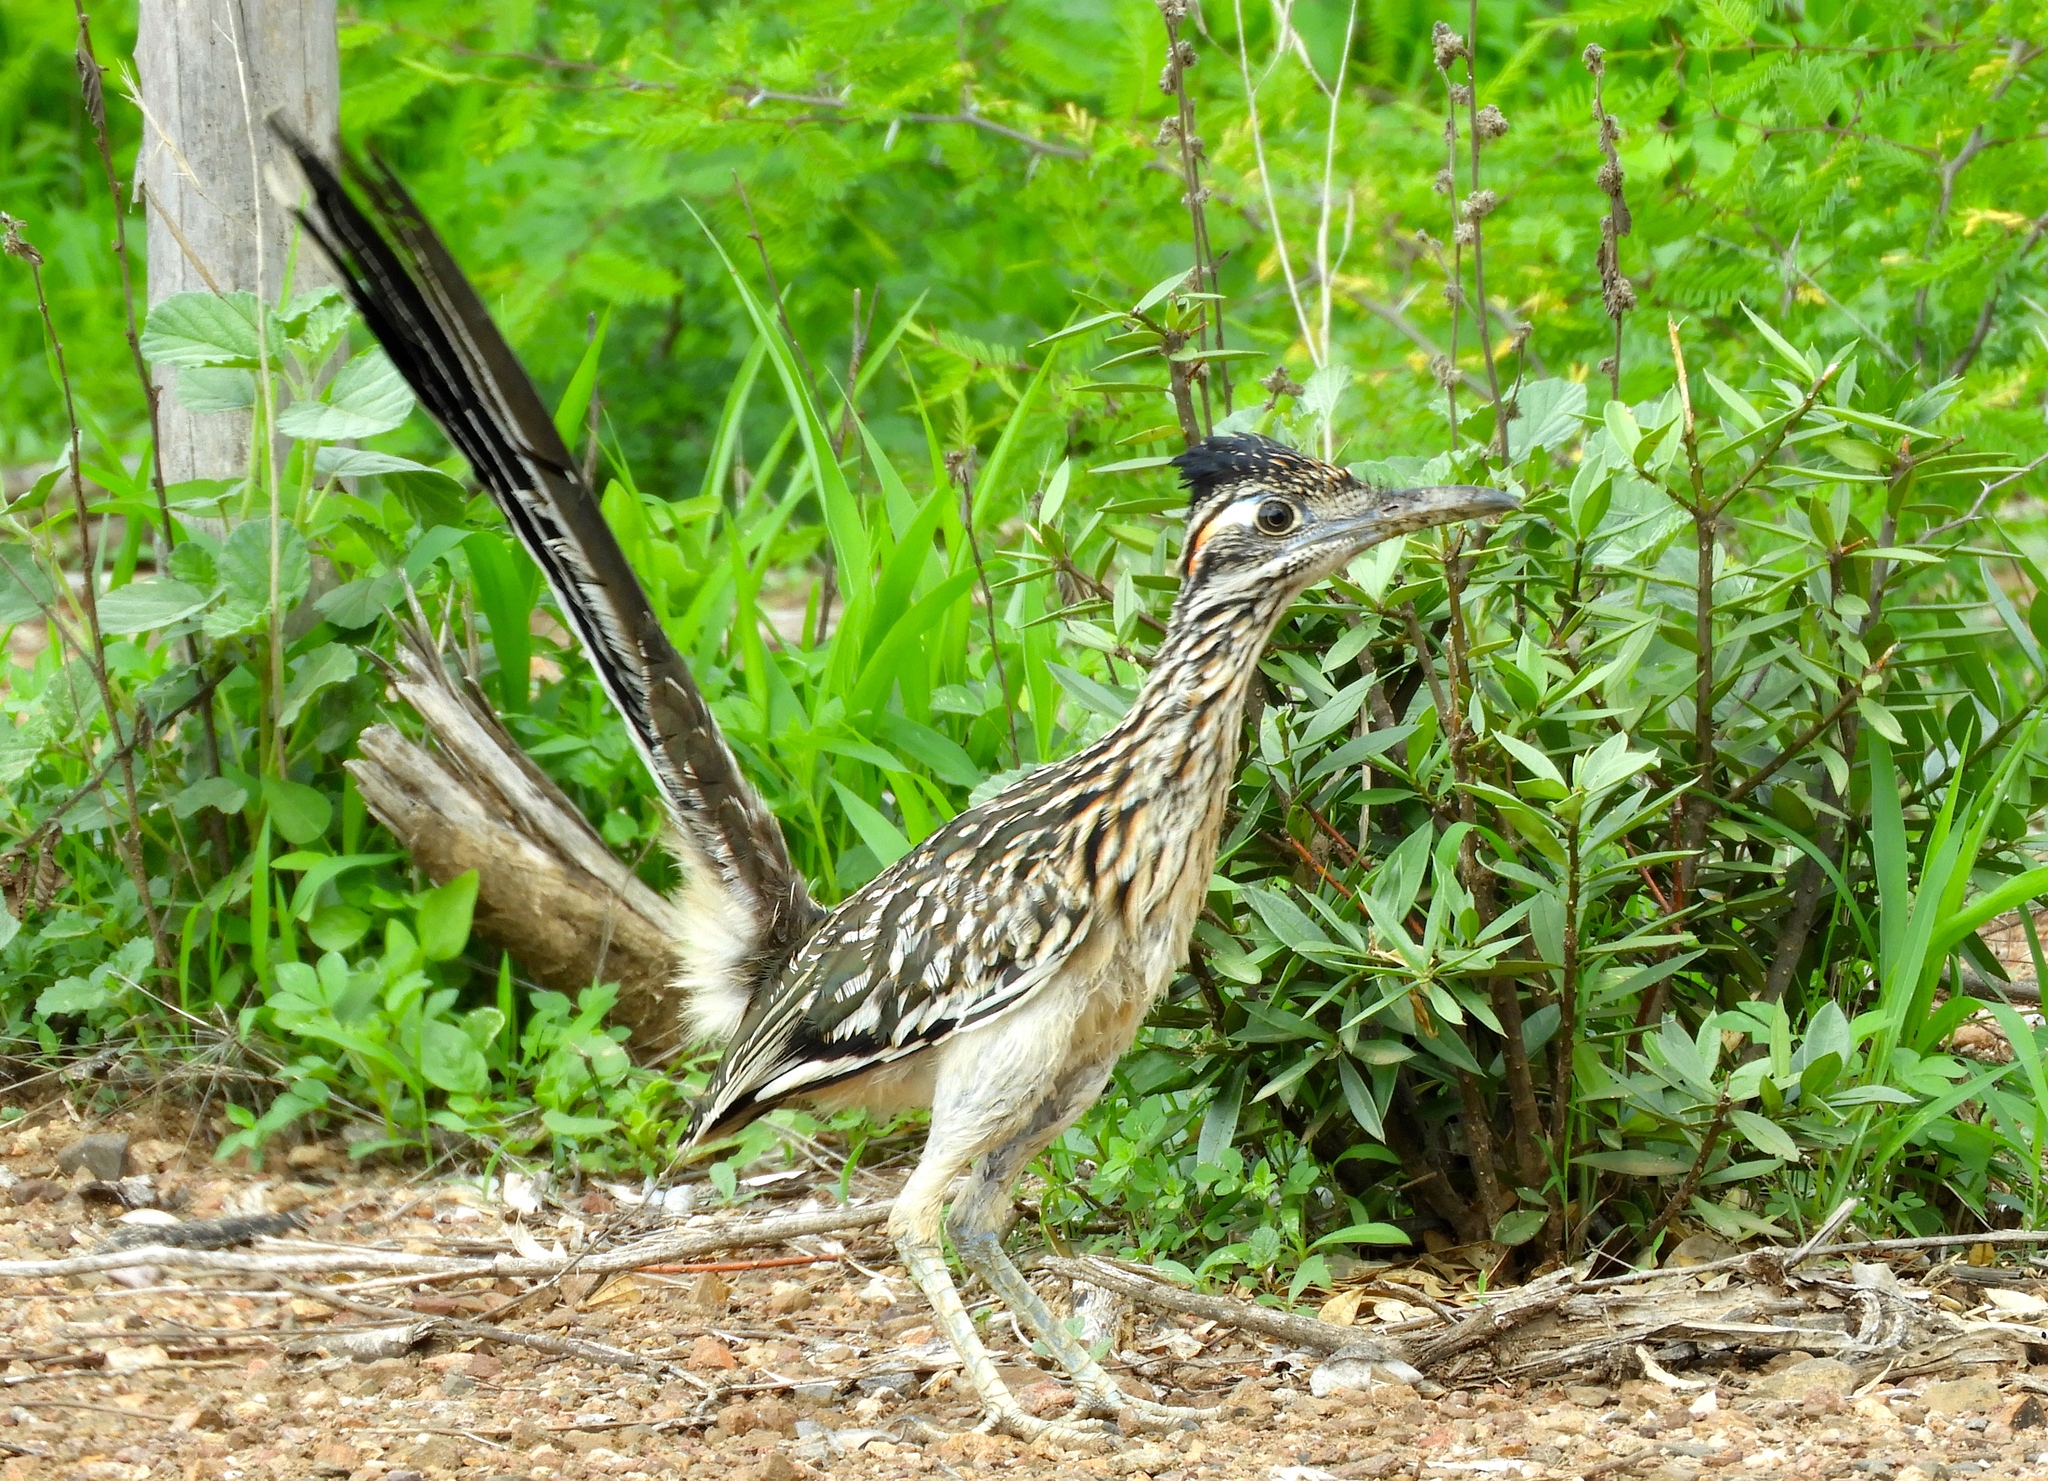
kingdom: Animalia
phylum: Chordata
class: Aves
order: Cuculiformes
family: Cuculidae
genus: Geococcyx
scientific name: Geococcyx californianus
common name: Greater roadrunner
